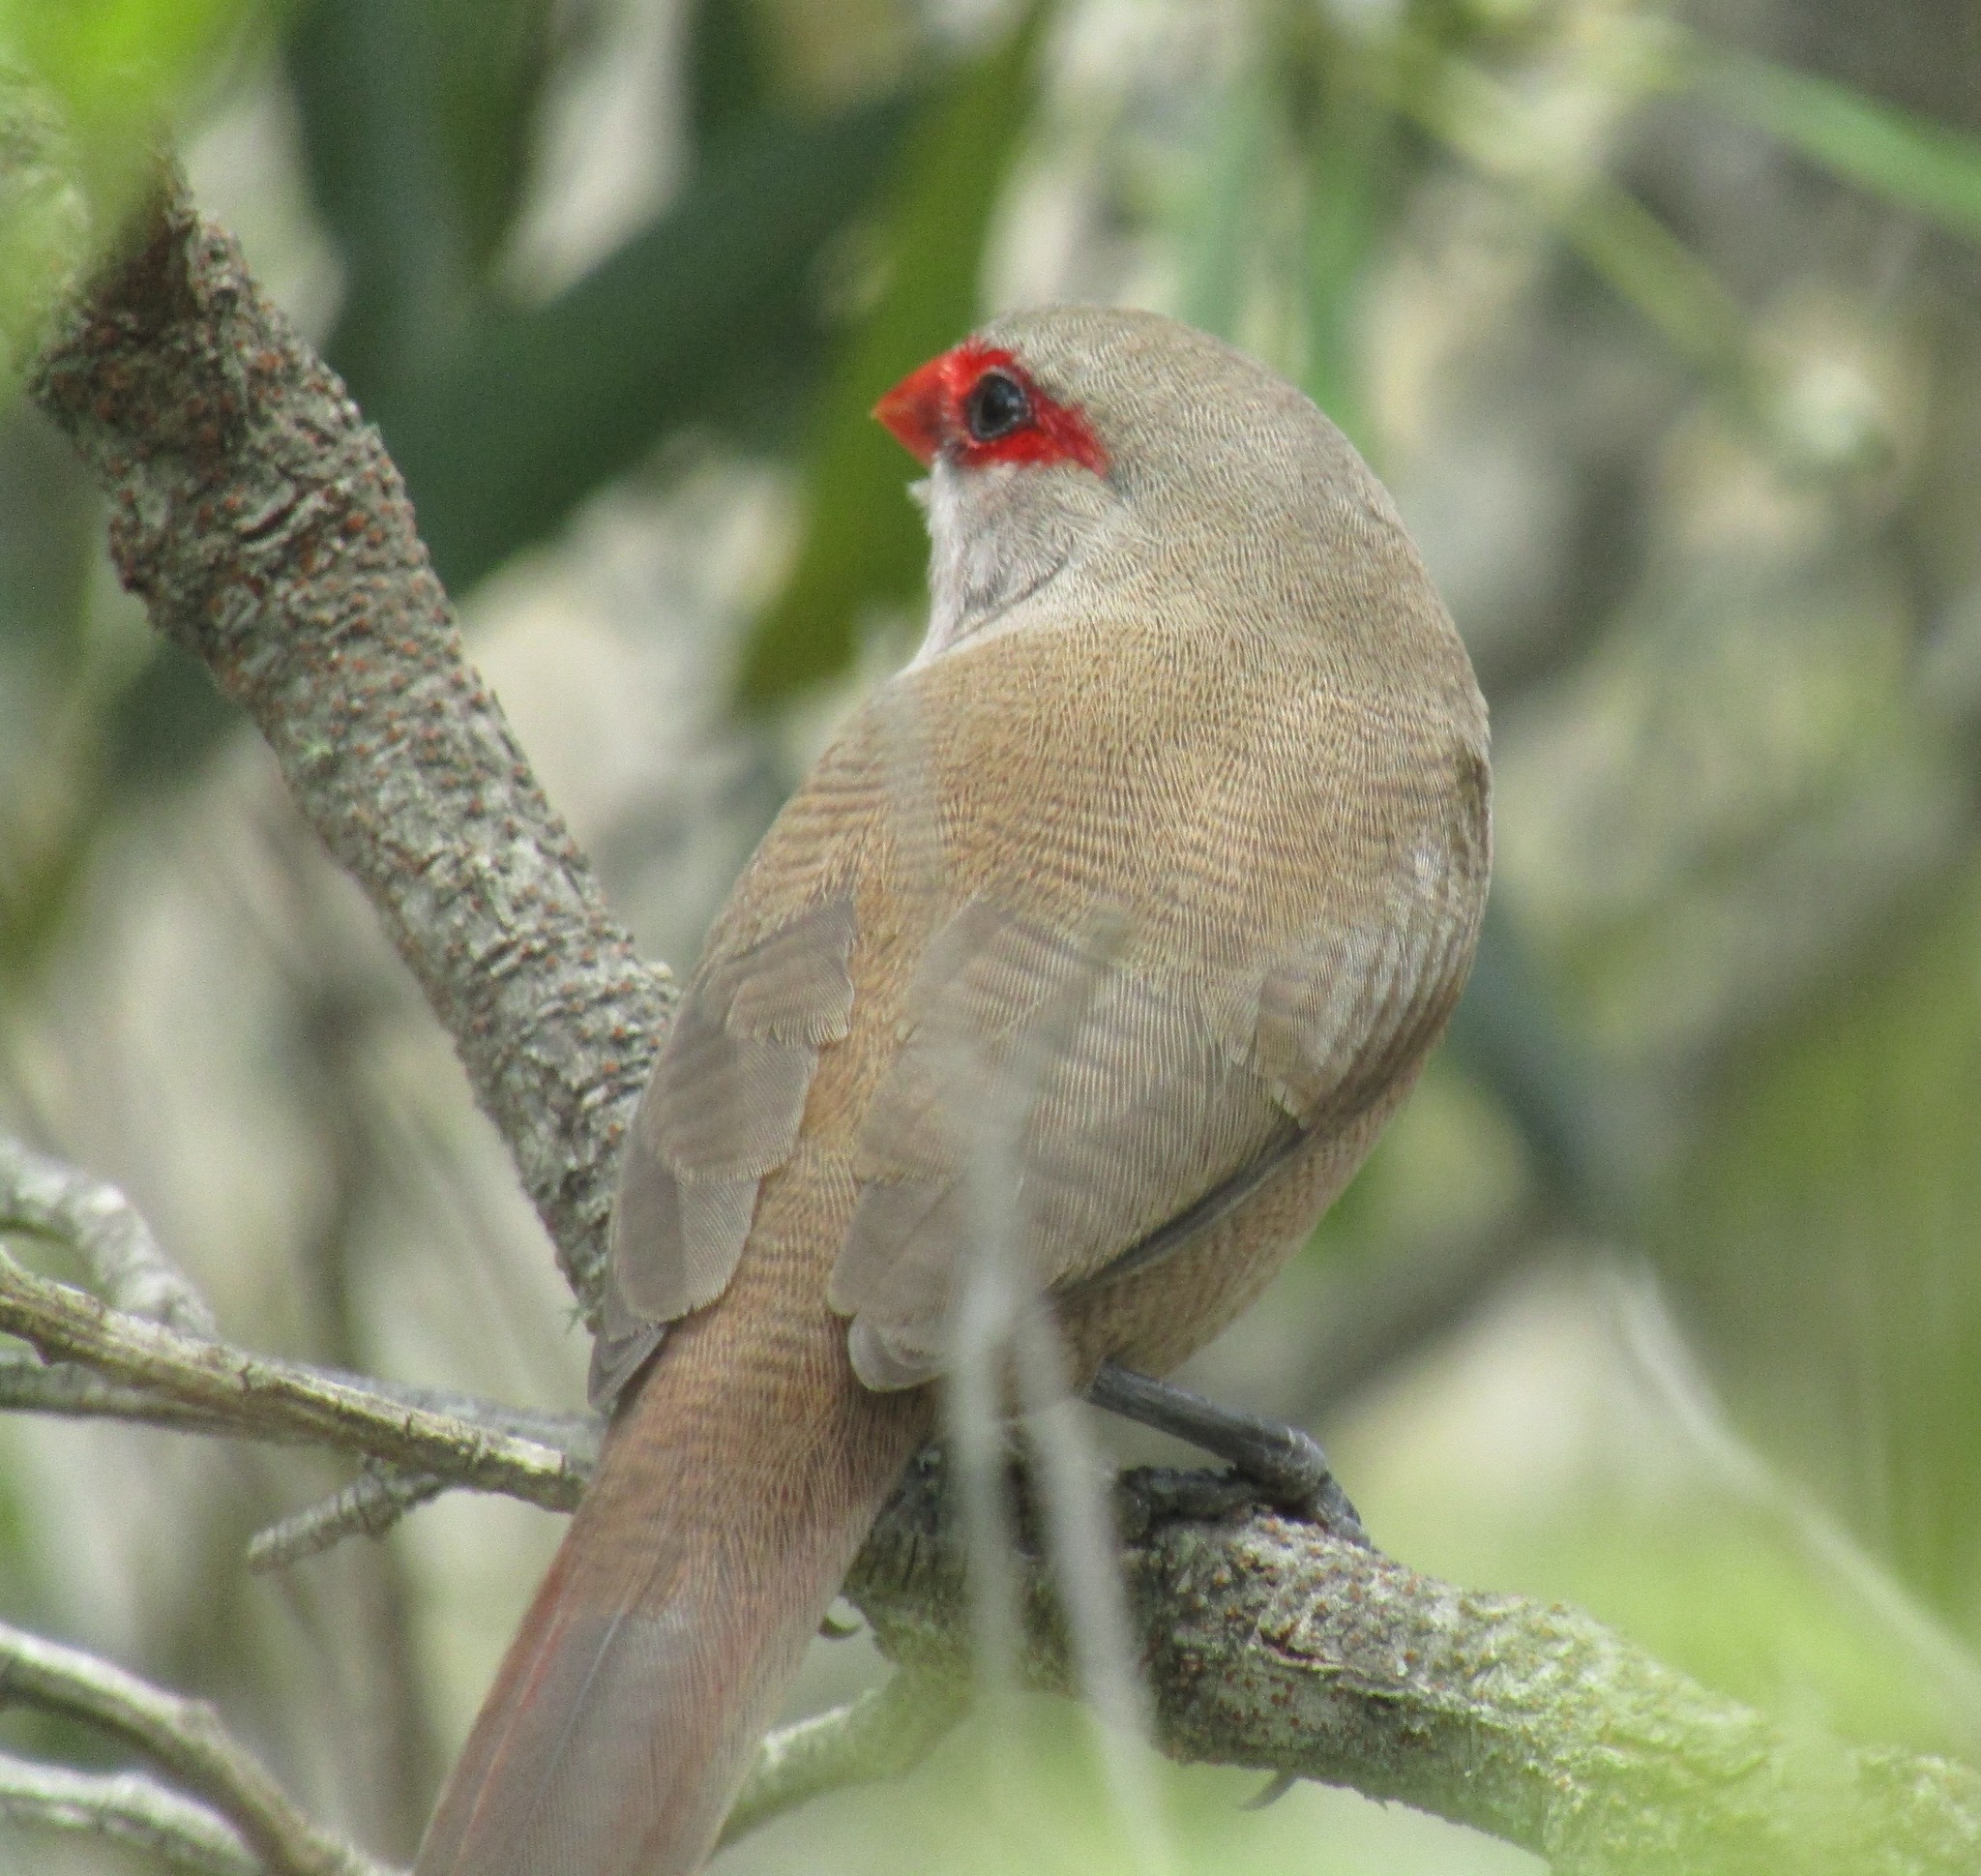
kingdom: Animalia
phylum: Chordata
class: Aves
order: Passeriformes
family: Estrildidae
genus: Estrilda
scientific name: Estrilda astrild
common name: Common waxbill
